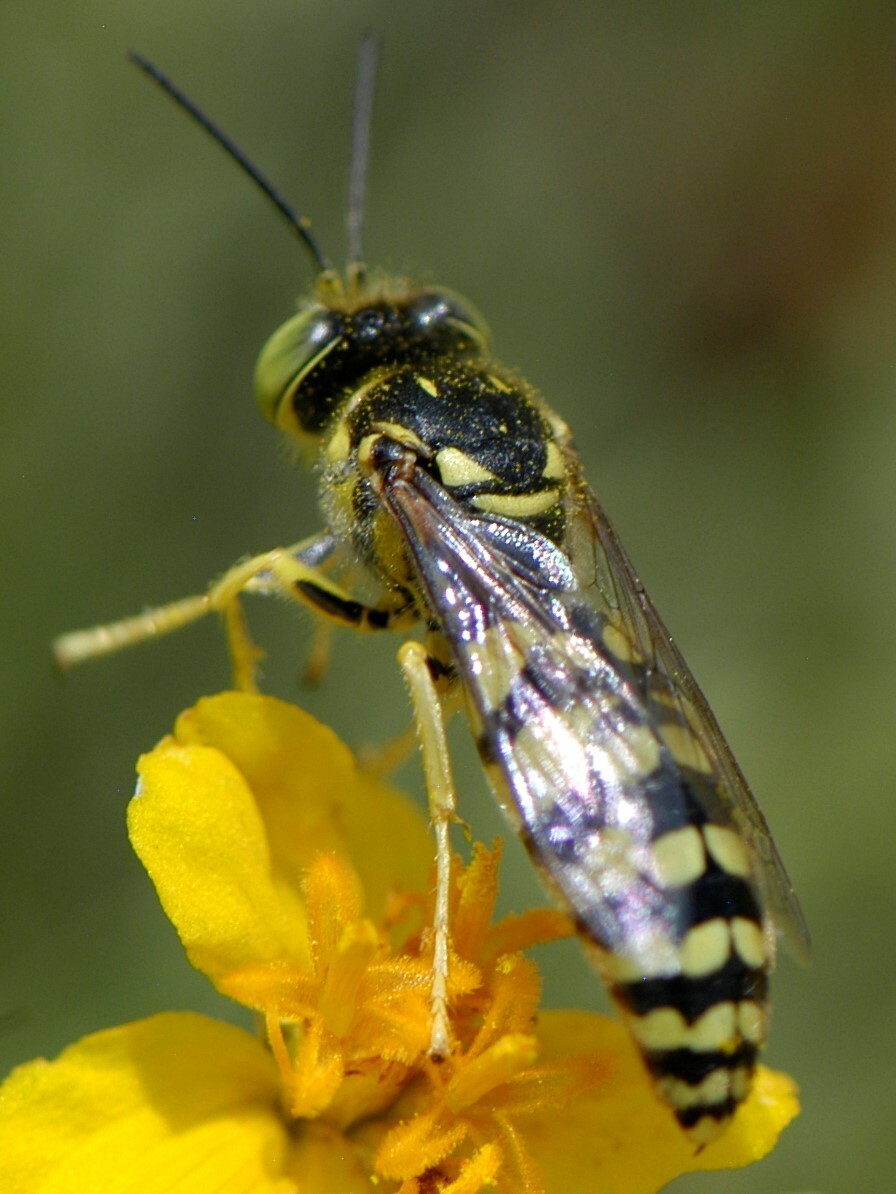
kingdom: Animalia
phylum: Arthropoda
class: Insecta
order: Hymenoptera
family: Crabronidae
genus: Steniolia
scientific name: Steniolia
